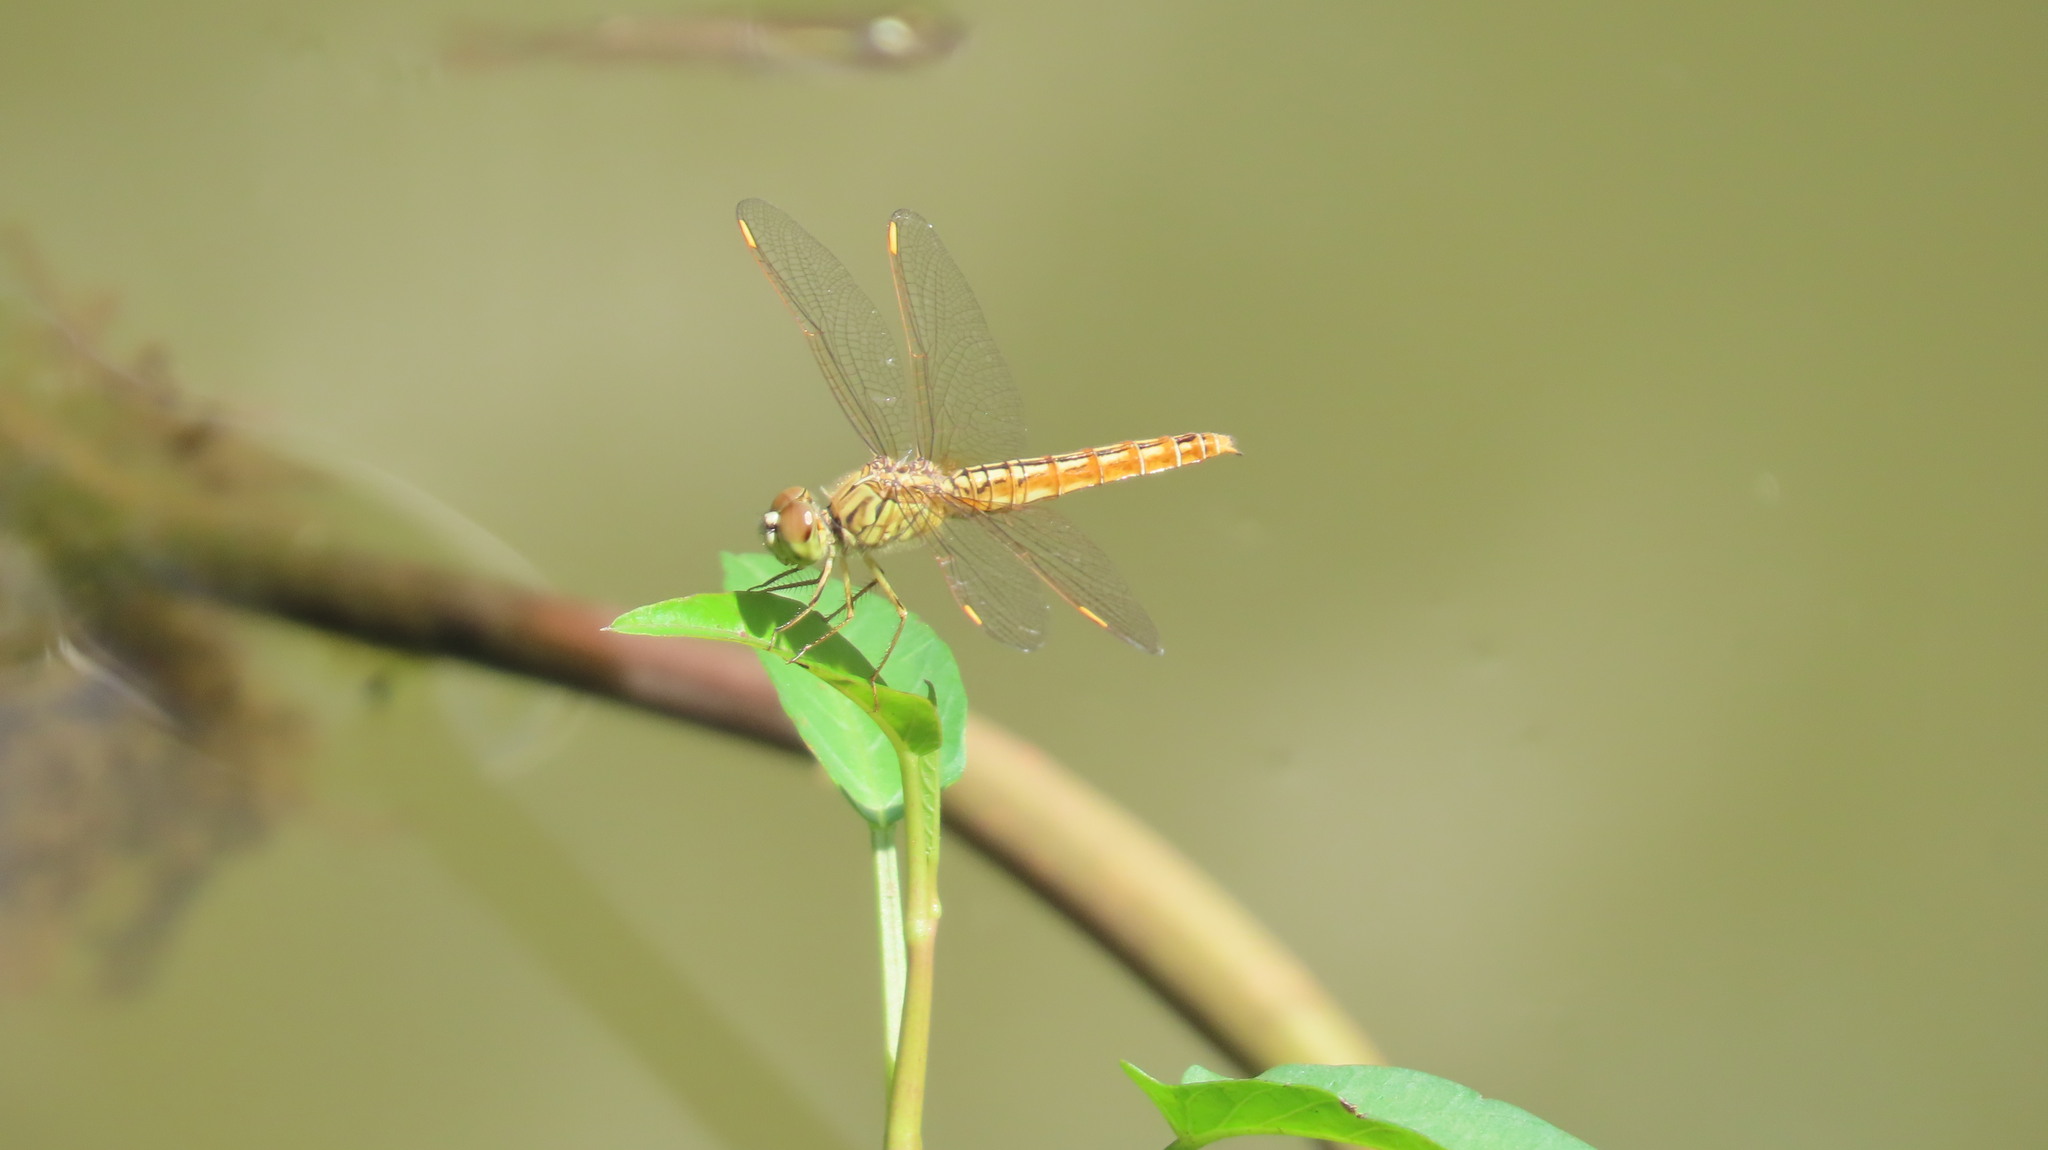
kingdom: Animalia
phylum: Arthropoda
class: Insecta
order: Odonata
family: Libellulidae
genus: Brachythemis
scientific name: Brachythemis contaminata
